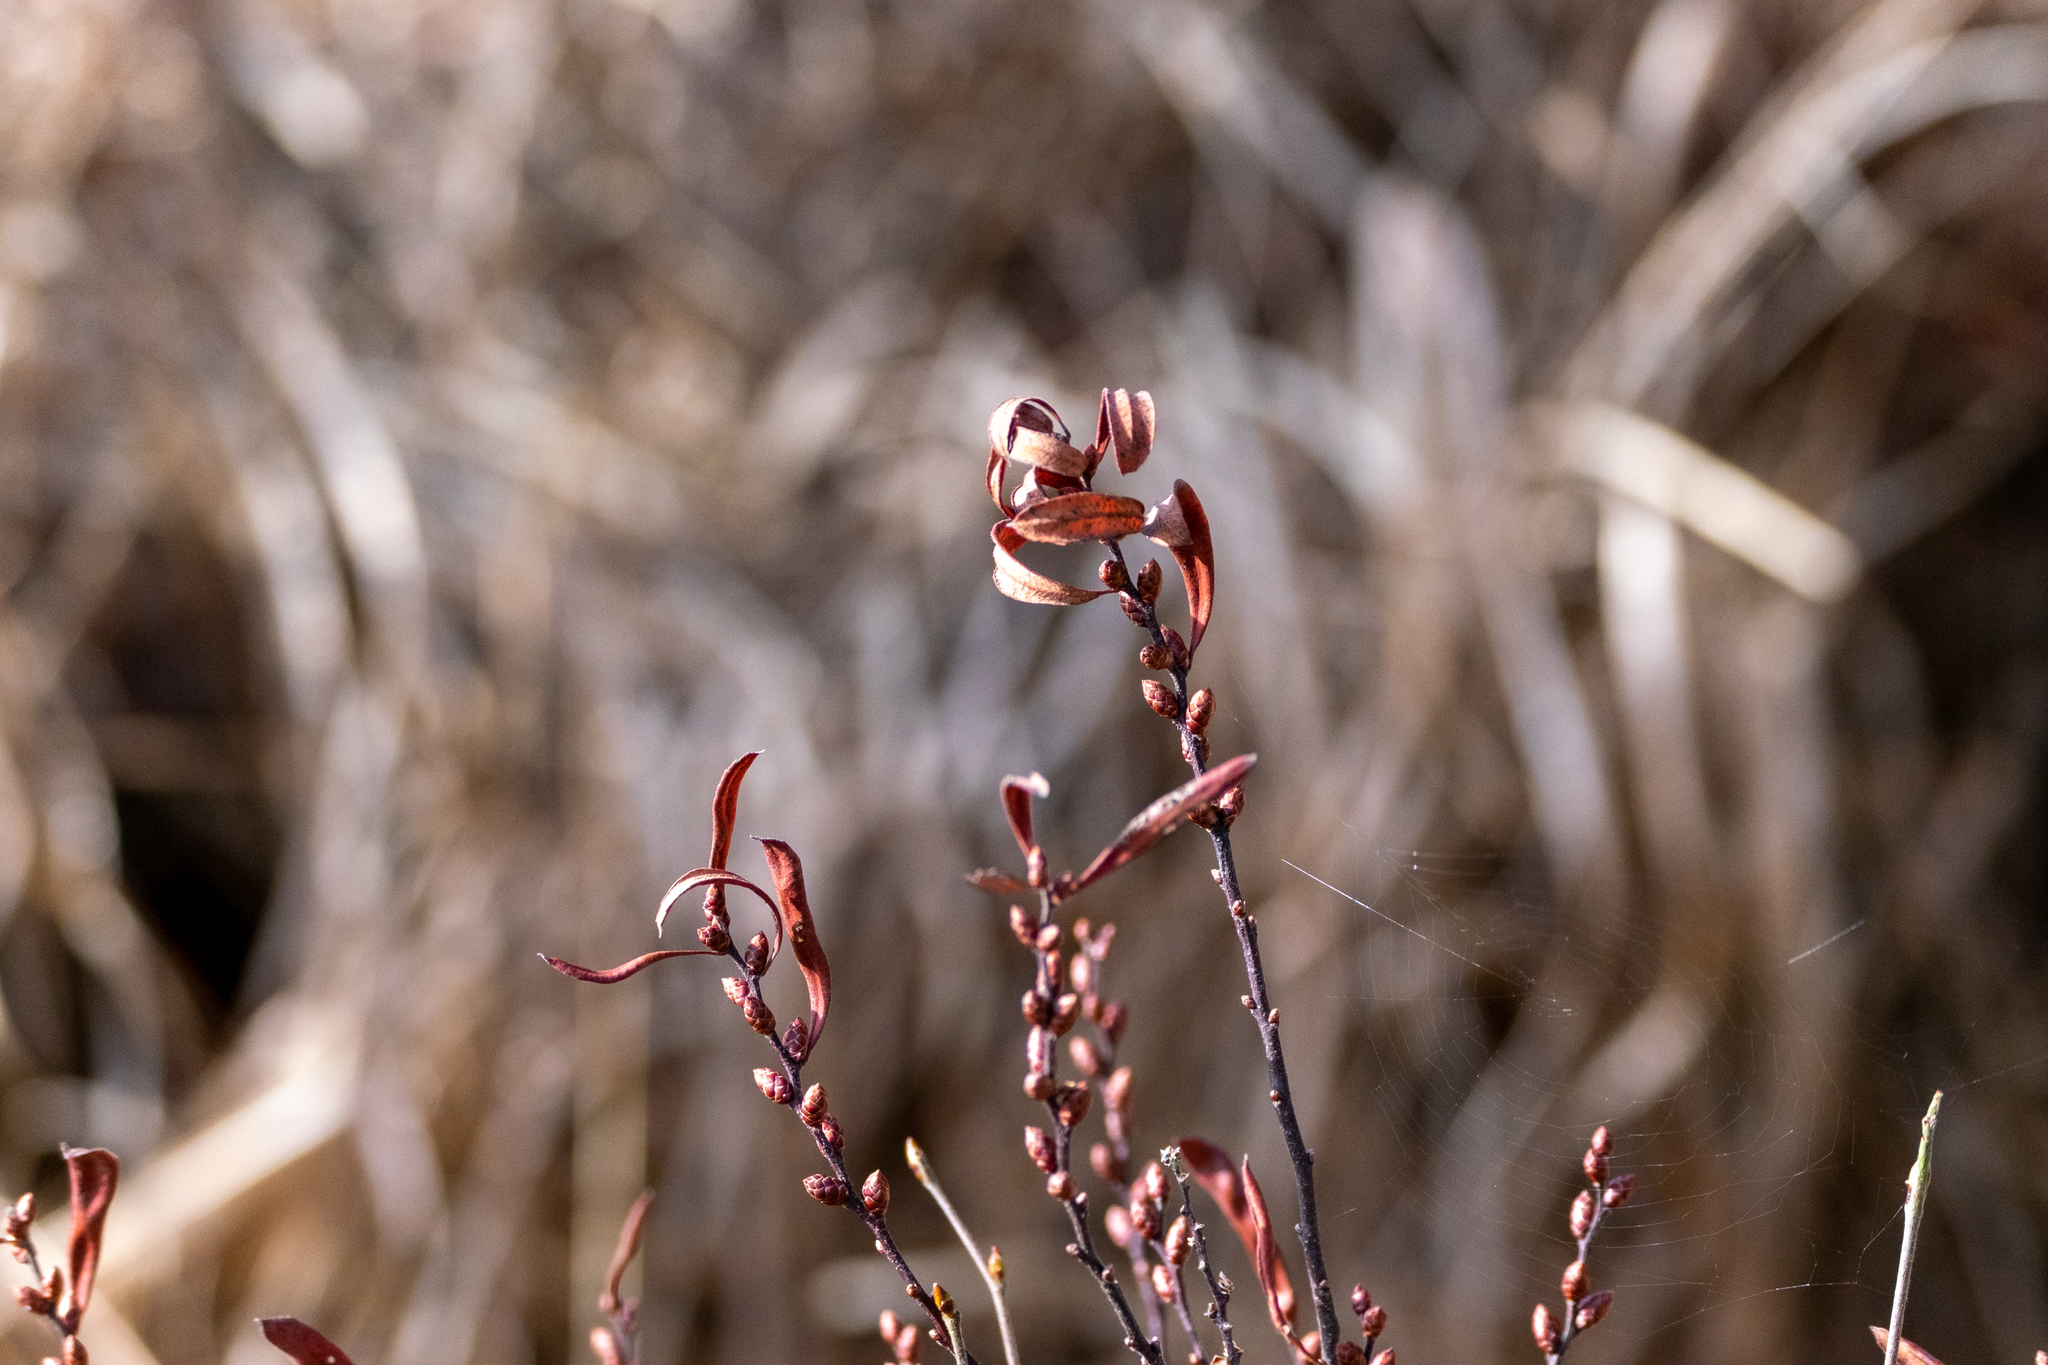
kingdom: Plantae
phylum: Tracheophyta
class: Magnoliopsida
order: Fagales
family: Myricaceae
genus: Myrica
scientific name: Myrica gale
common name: Sweet gale
